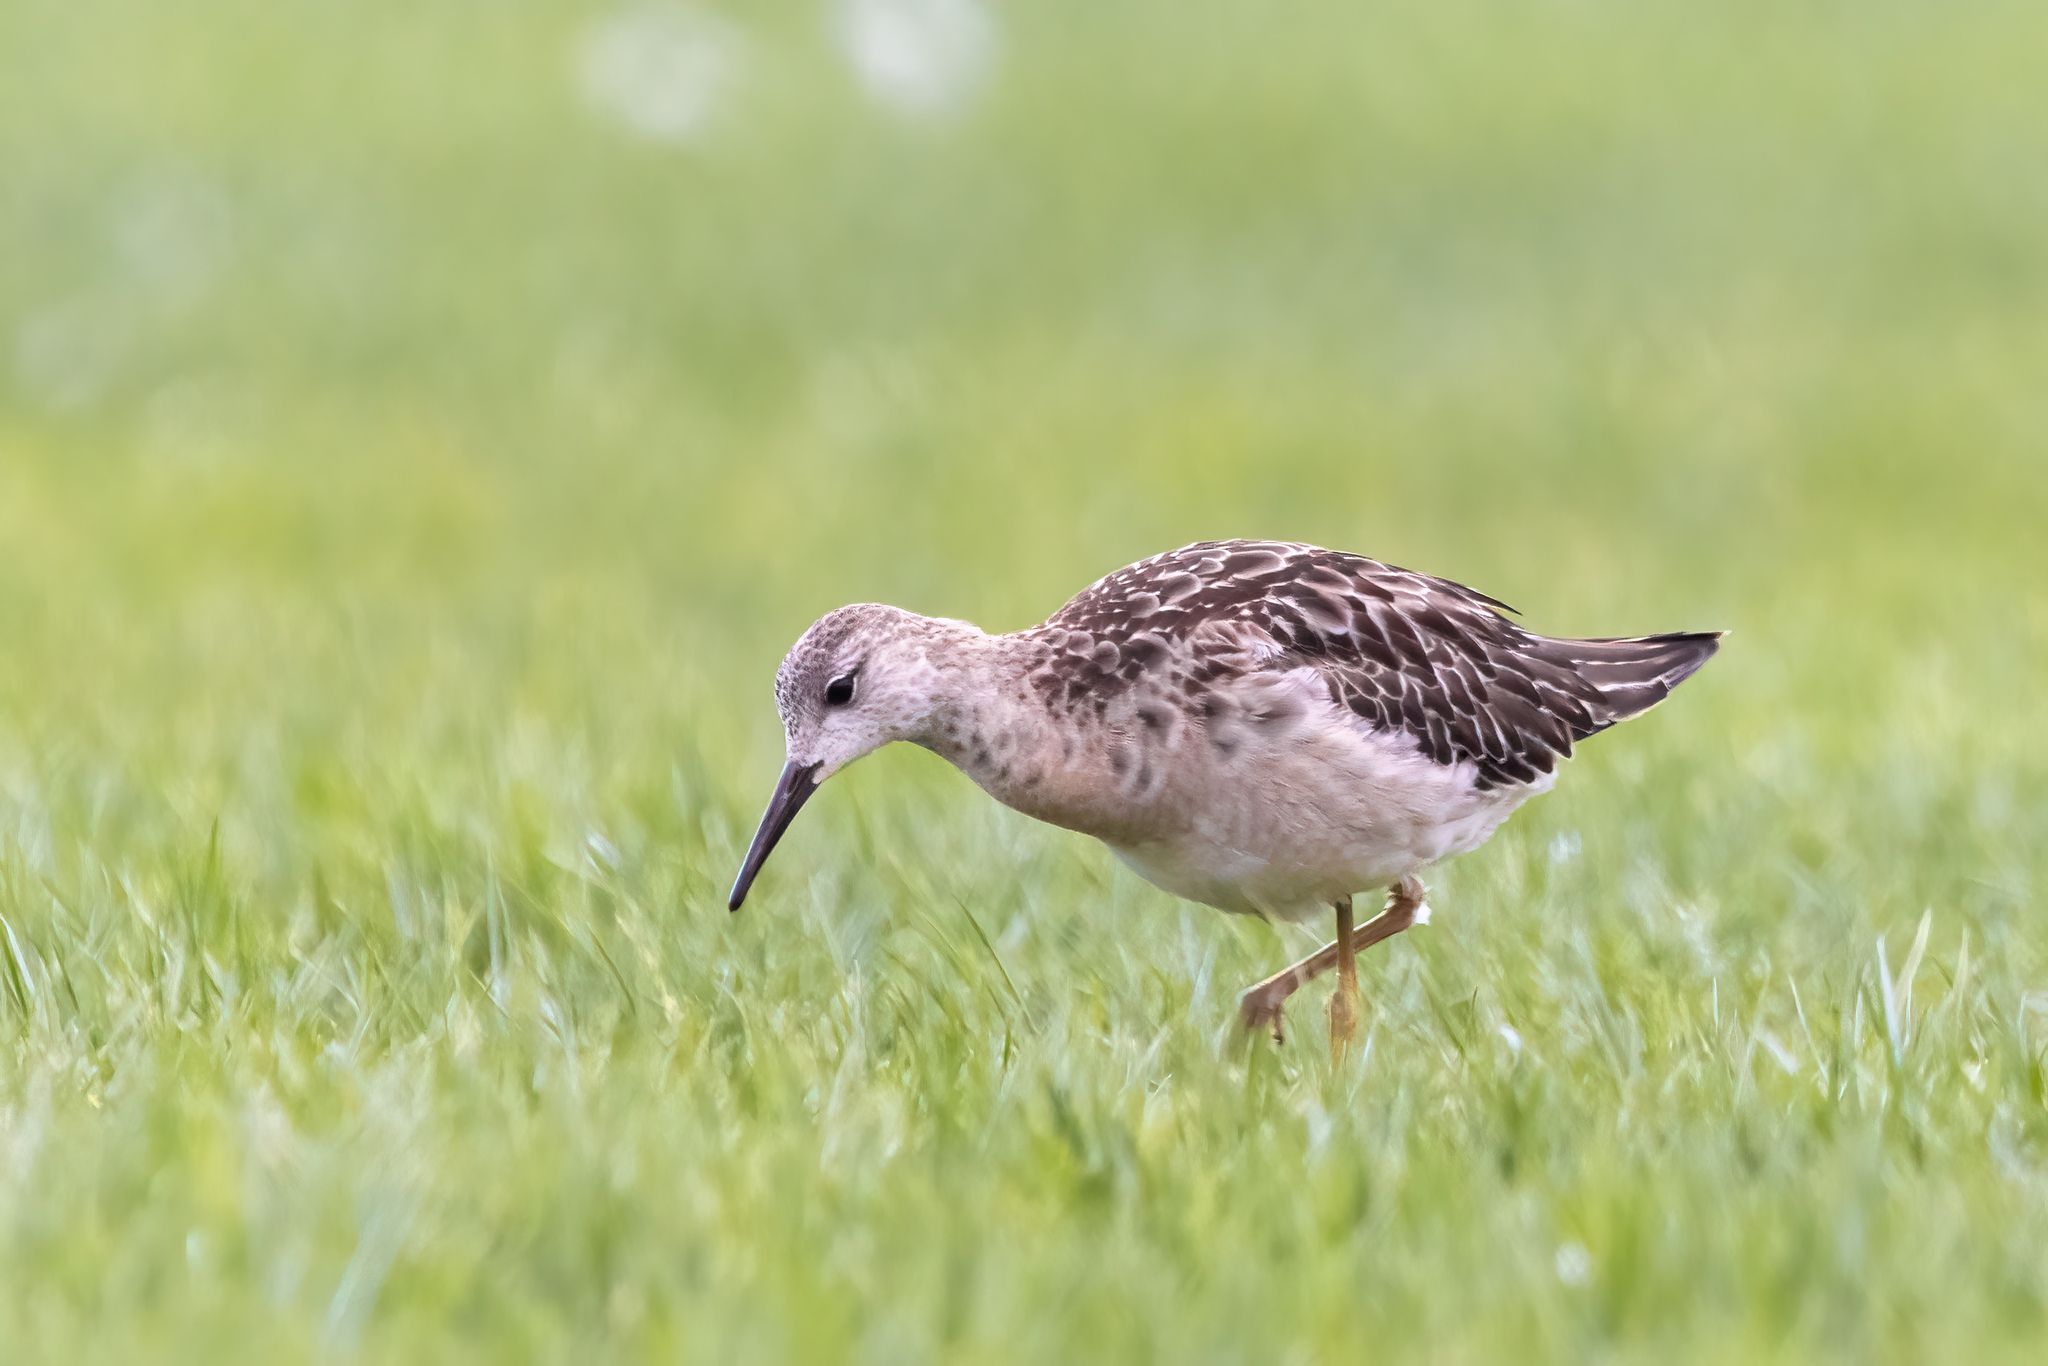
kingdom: Animalia
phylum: Chordata
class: Aves
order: Charadriiformes
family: Scolopacidae
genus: Calidris
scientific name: Calidris pugnax
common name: Ruff
